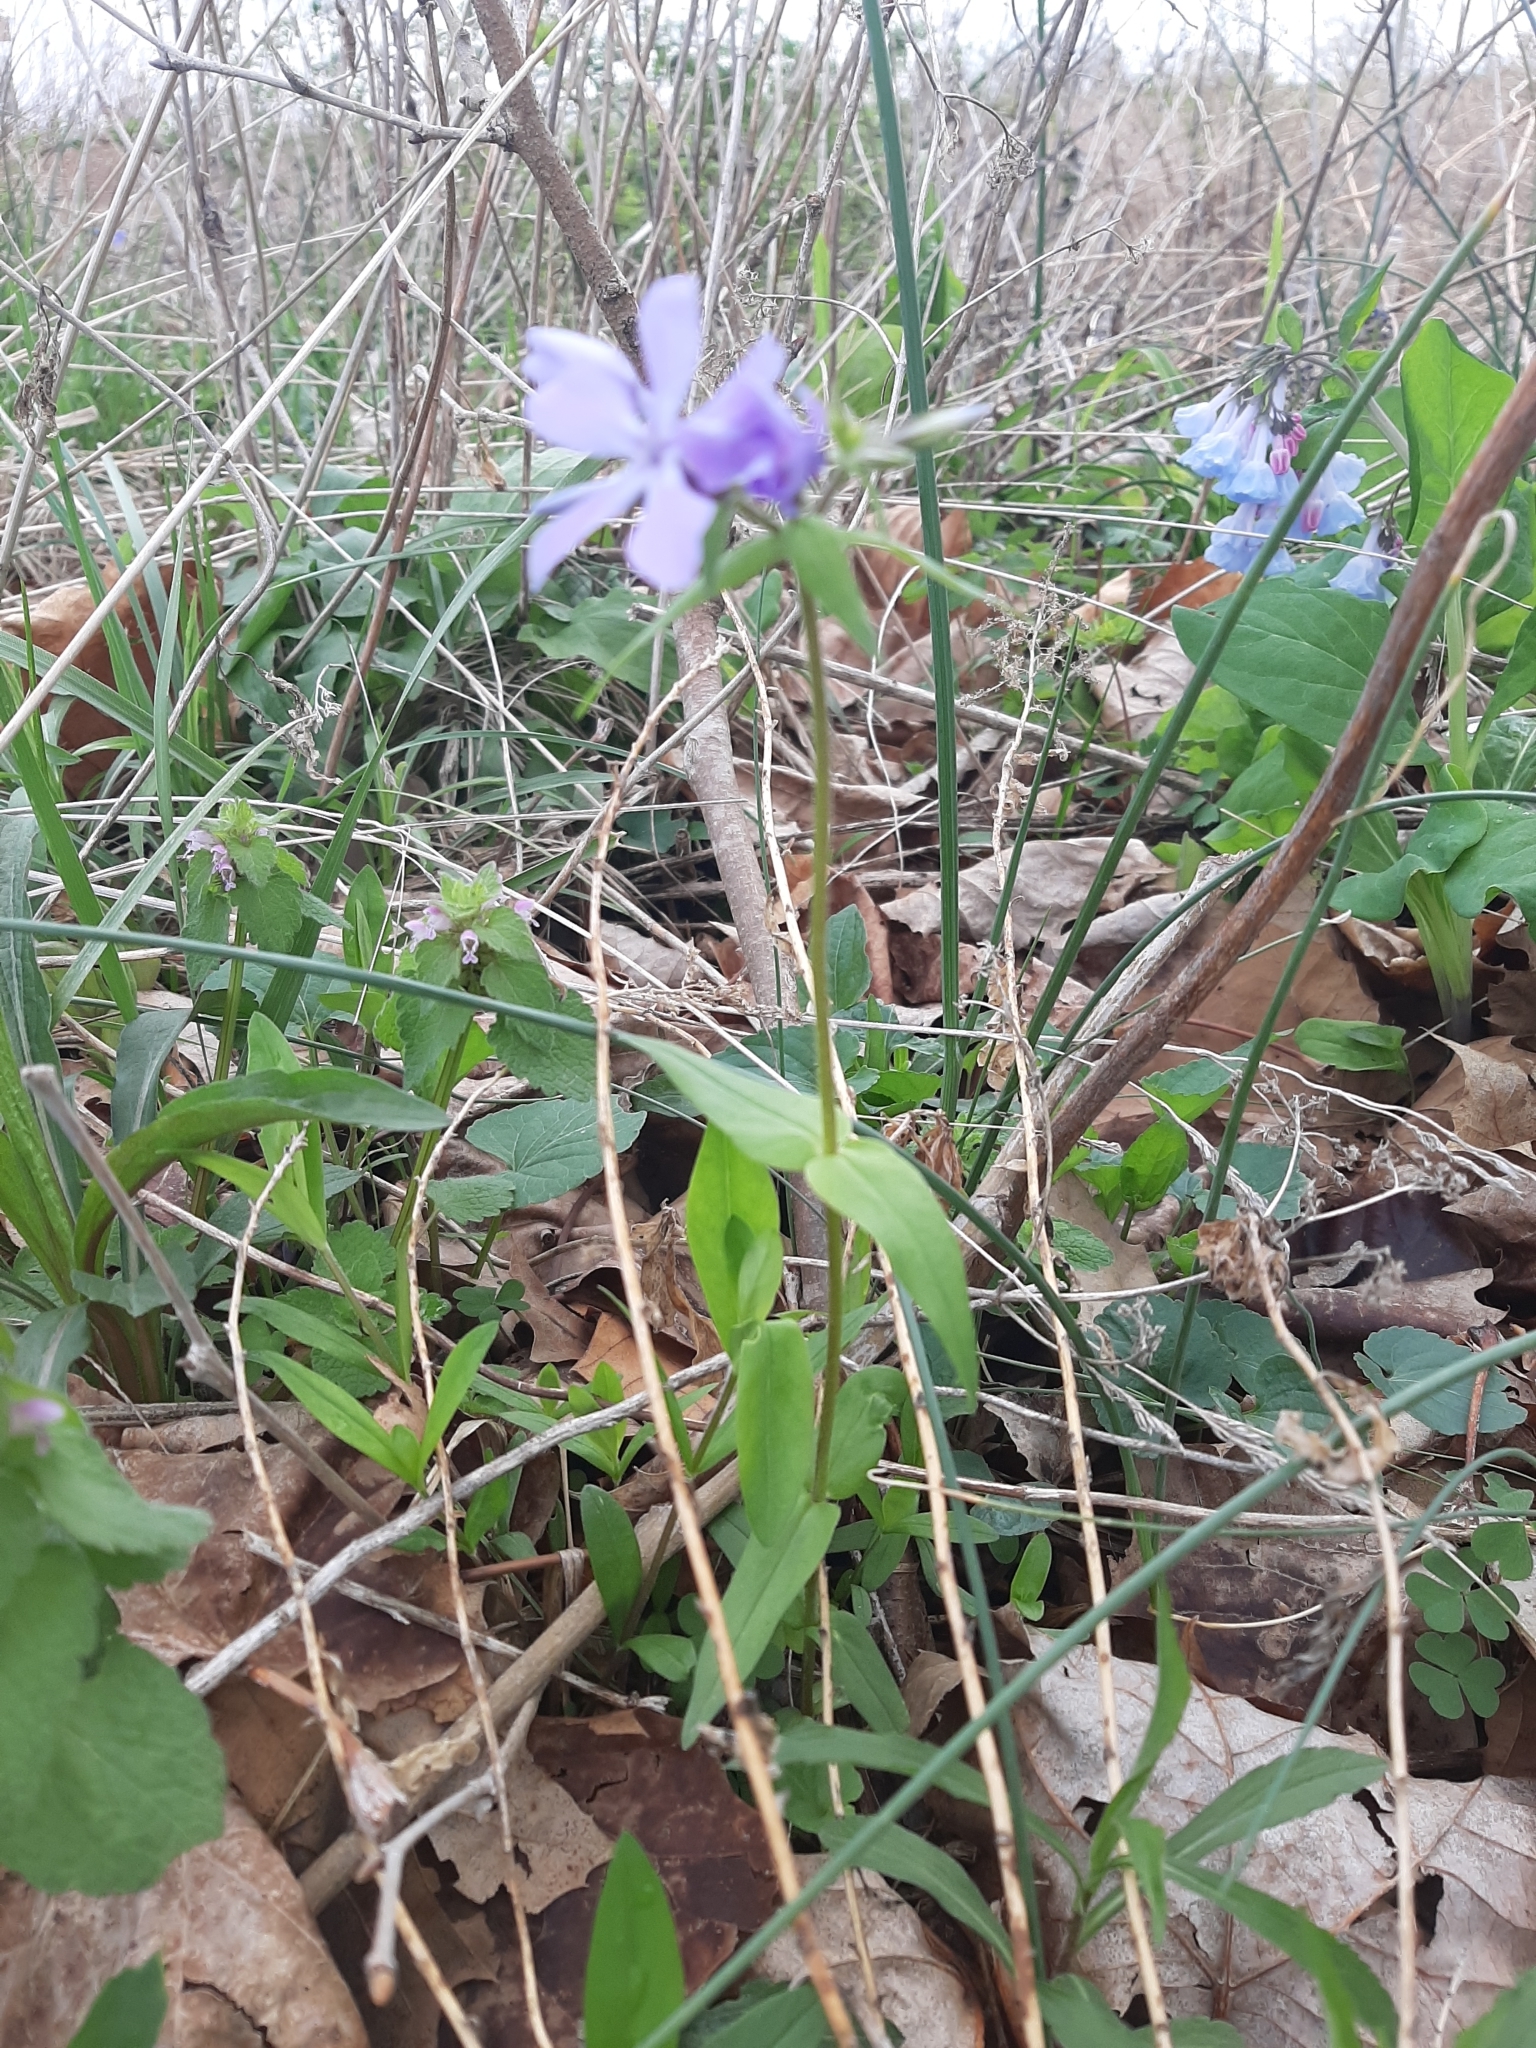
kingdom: Plantae
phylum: Tracheophyta
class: Magnoliopsida
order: Ericales
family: Polemoniaceae
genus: Phlox
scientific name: Phlox divaricata
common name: Blue phlox
